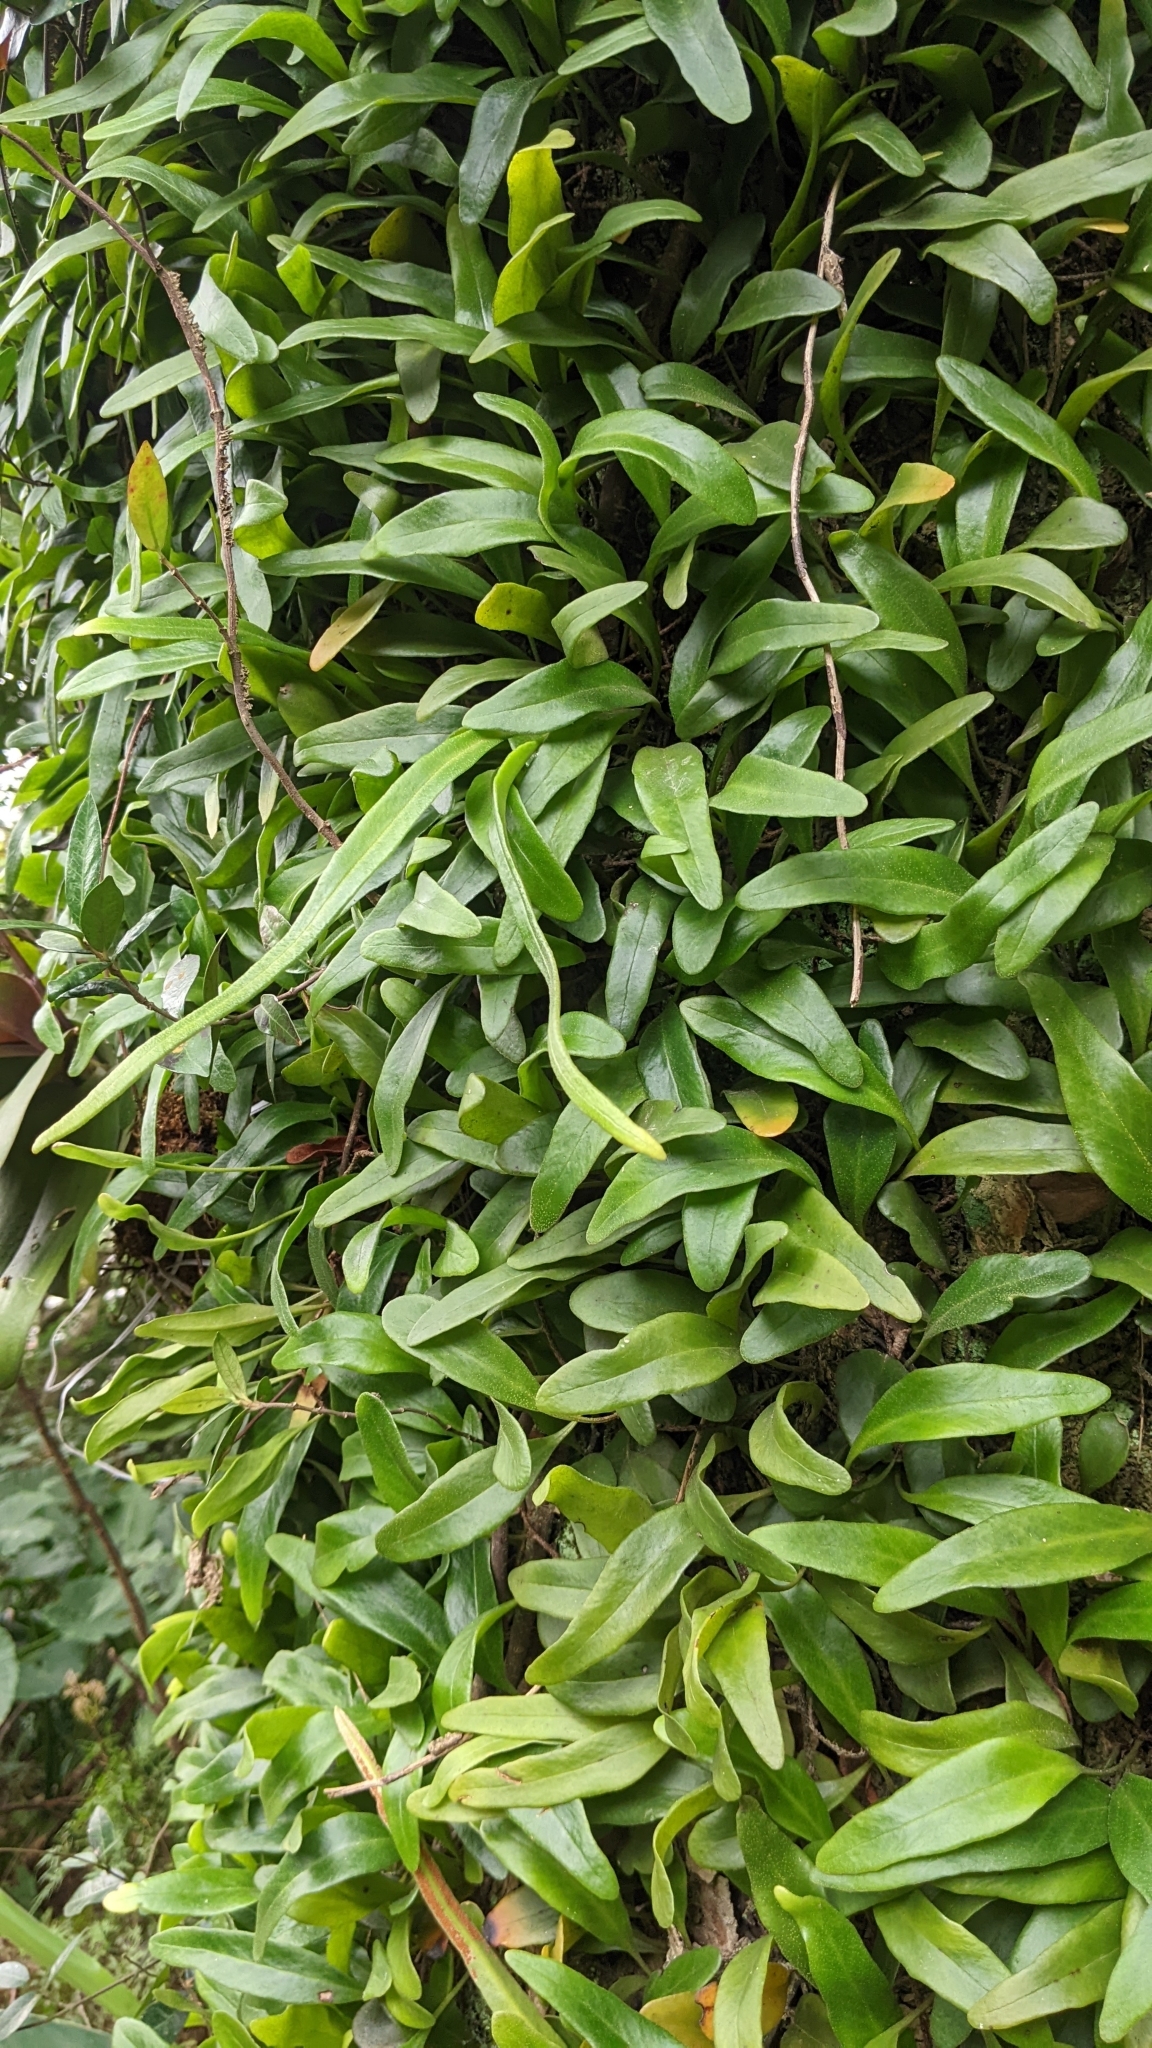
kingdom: Plantae
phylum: Tracheophyta
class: Polypodiopsida
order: Polypodiales
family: Polypodiaceae
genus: Pyrrosia
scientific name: Pyrrosia lanceolata
